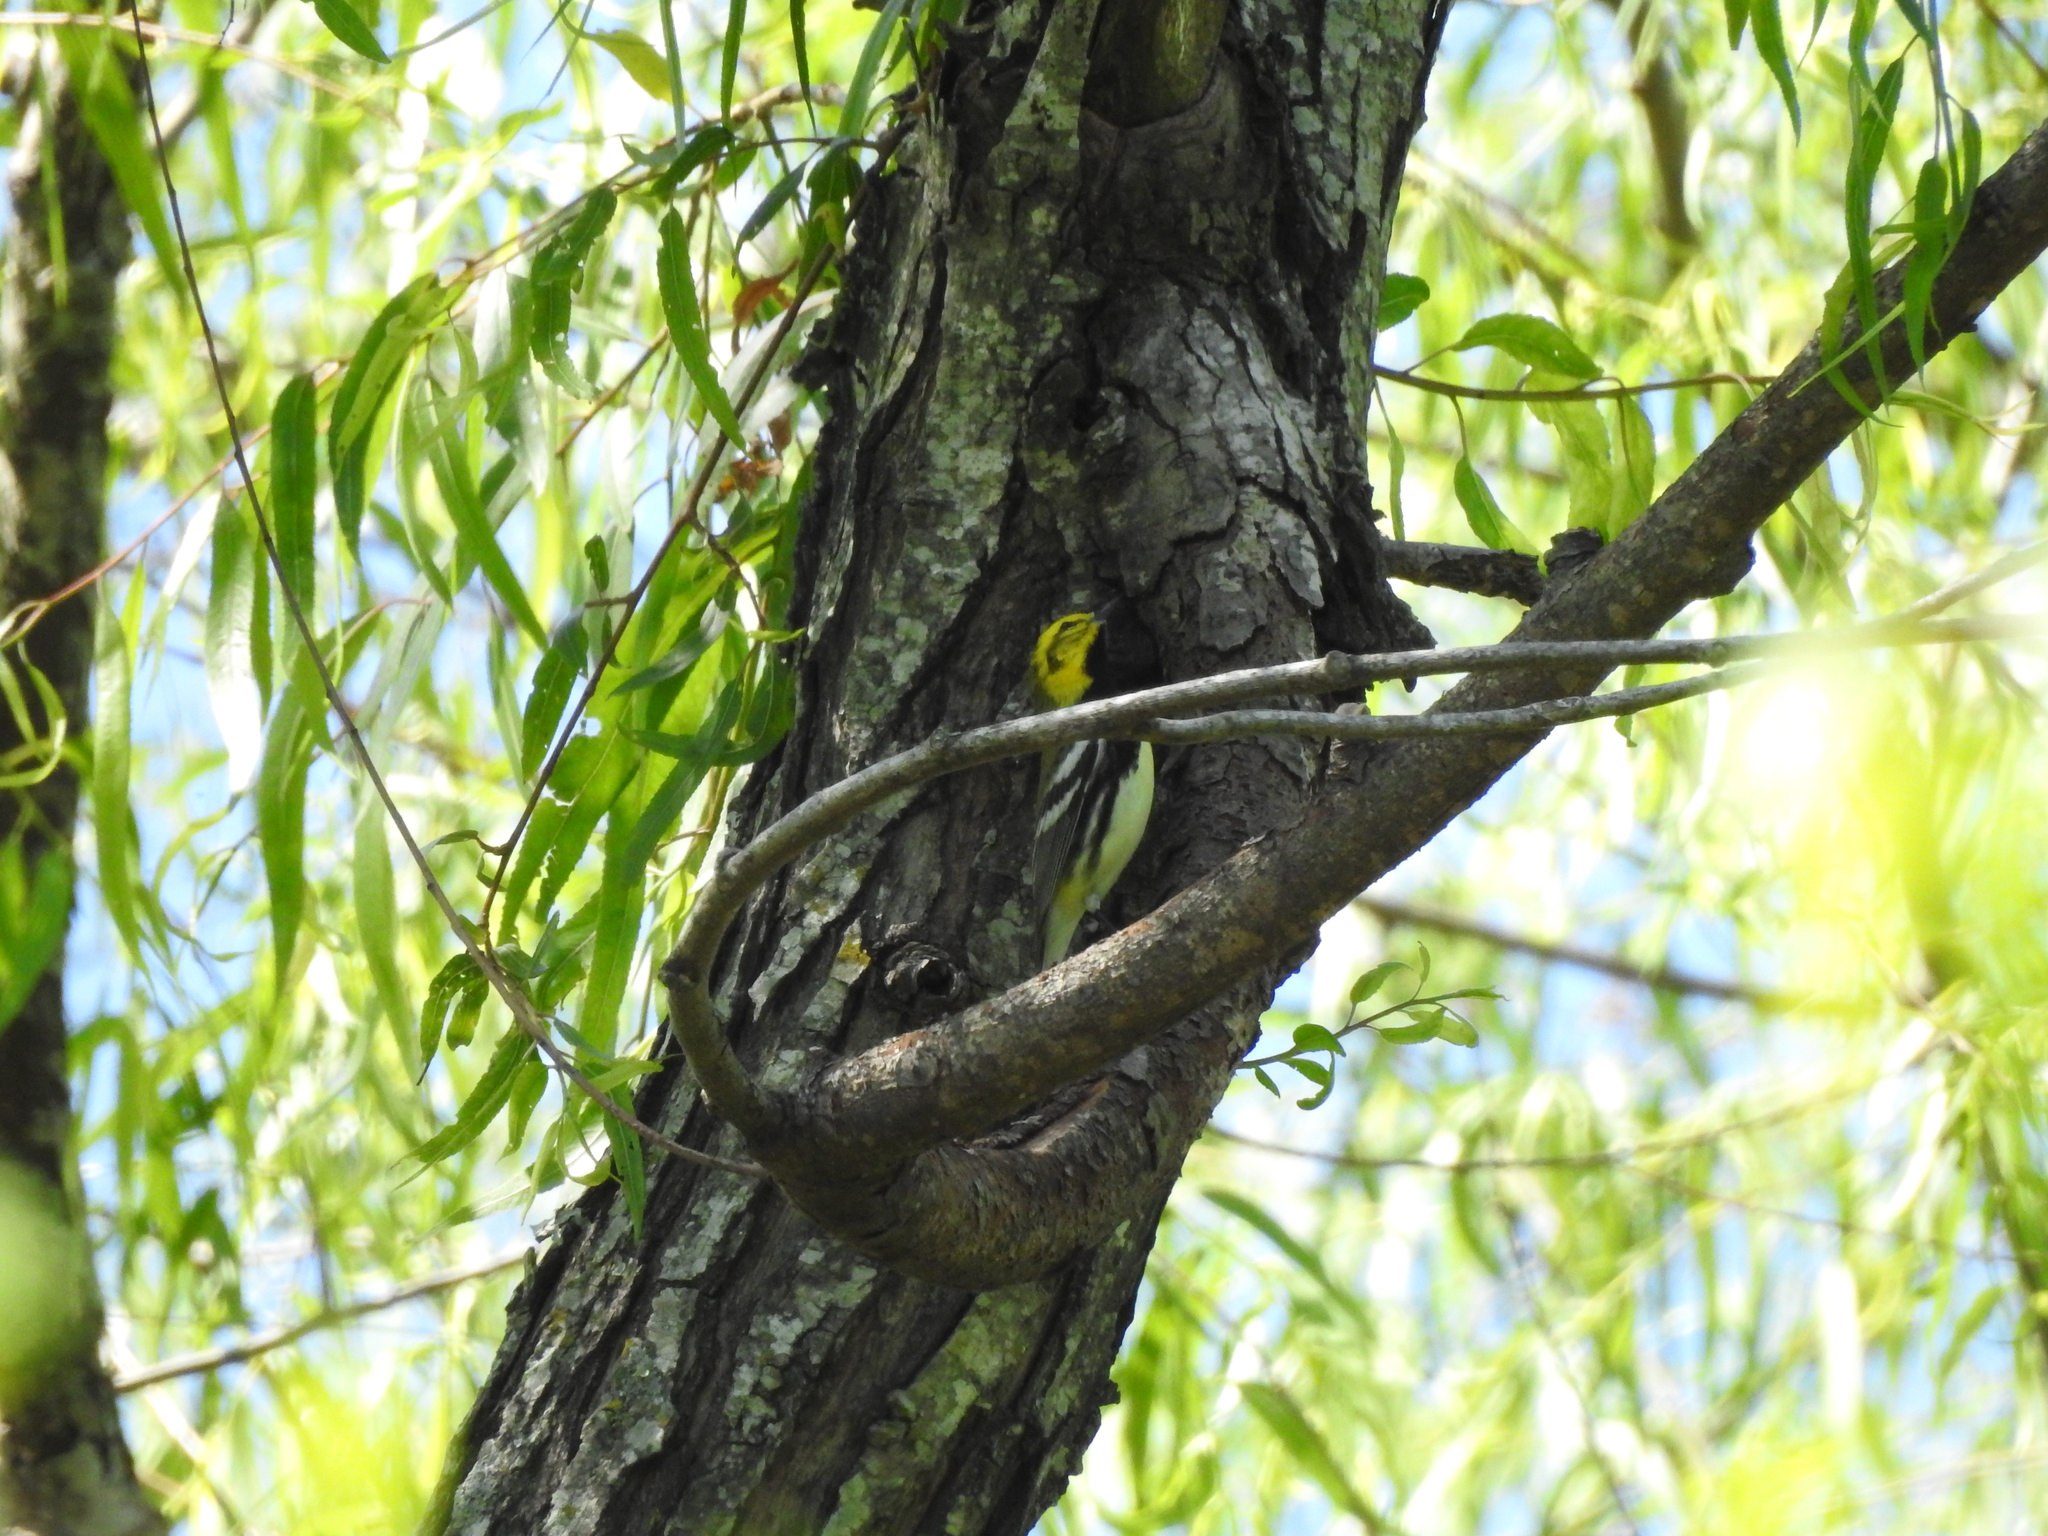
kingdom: Animalia
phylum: Chordata
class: Aves
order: Passeriformes
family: Parulidae
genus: Setophaga
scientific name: Setophaga virens
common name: Black-throated green warbler
